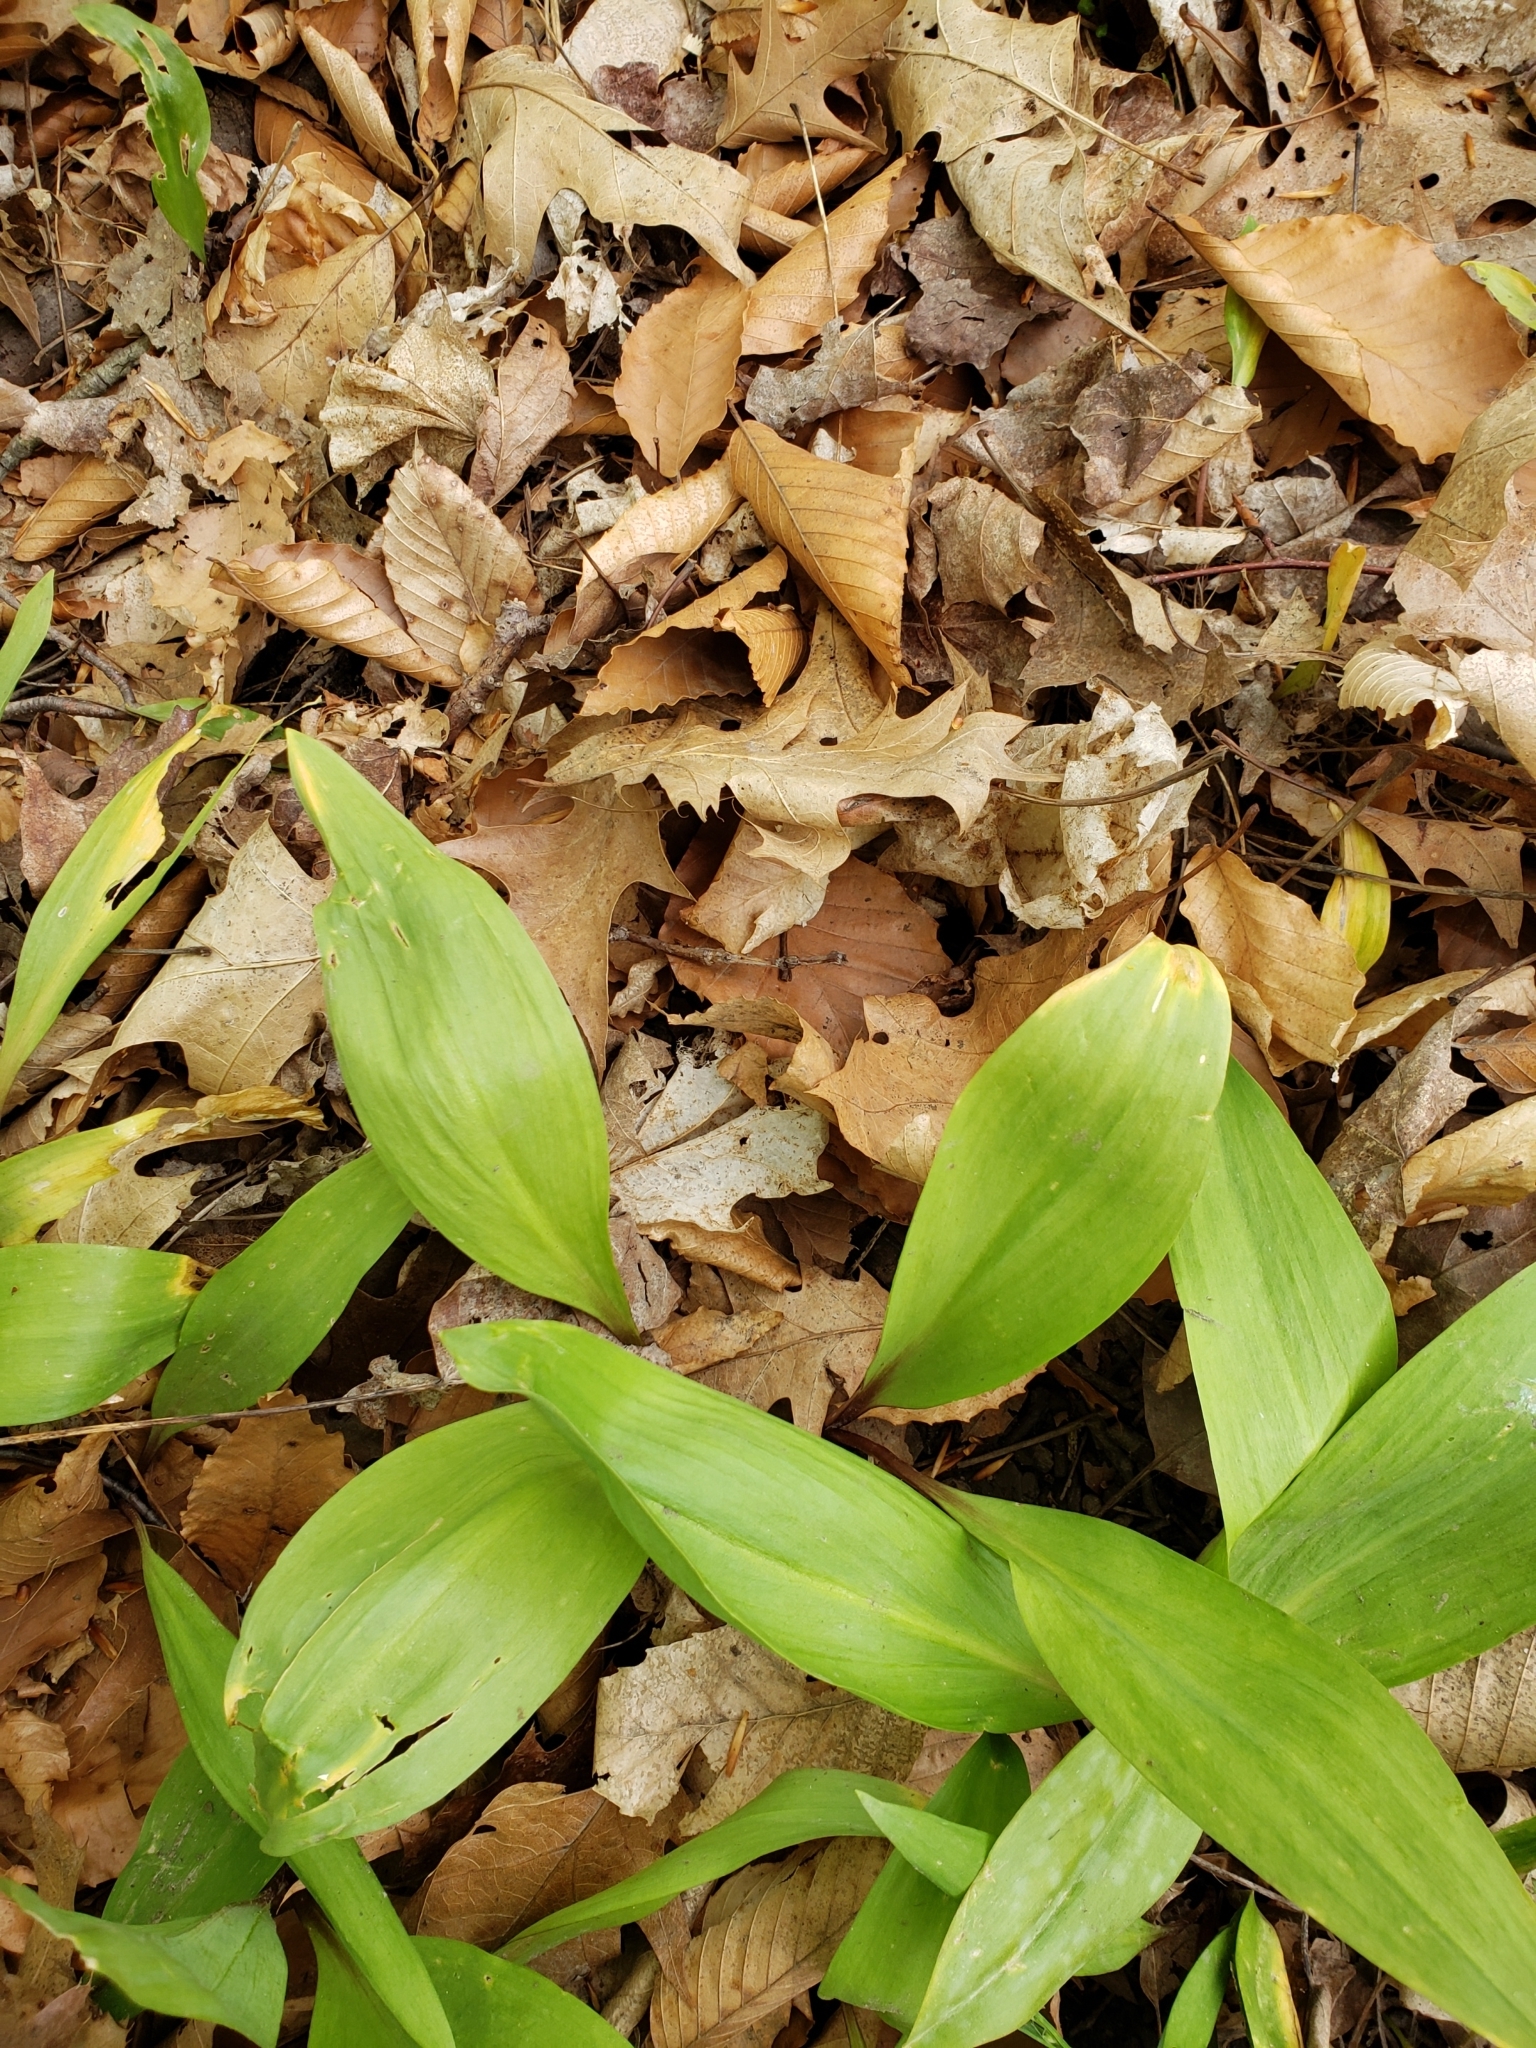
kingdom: Plantae
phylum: Tracheophyta
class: Liliopsida
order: Asparagales
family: Amaryllidaceae
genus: Allium
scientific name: Allium tricoccum
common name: Ramp
